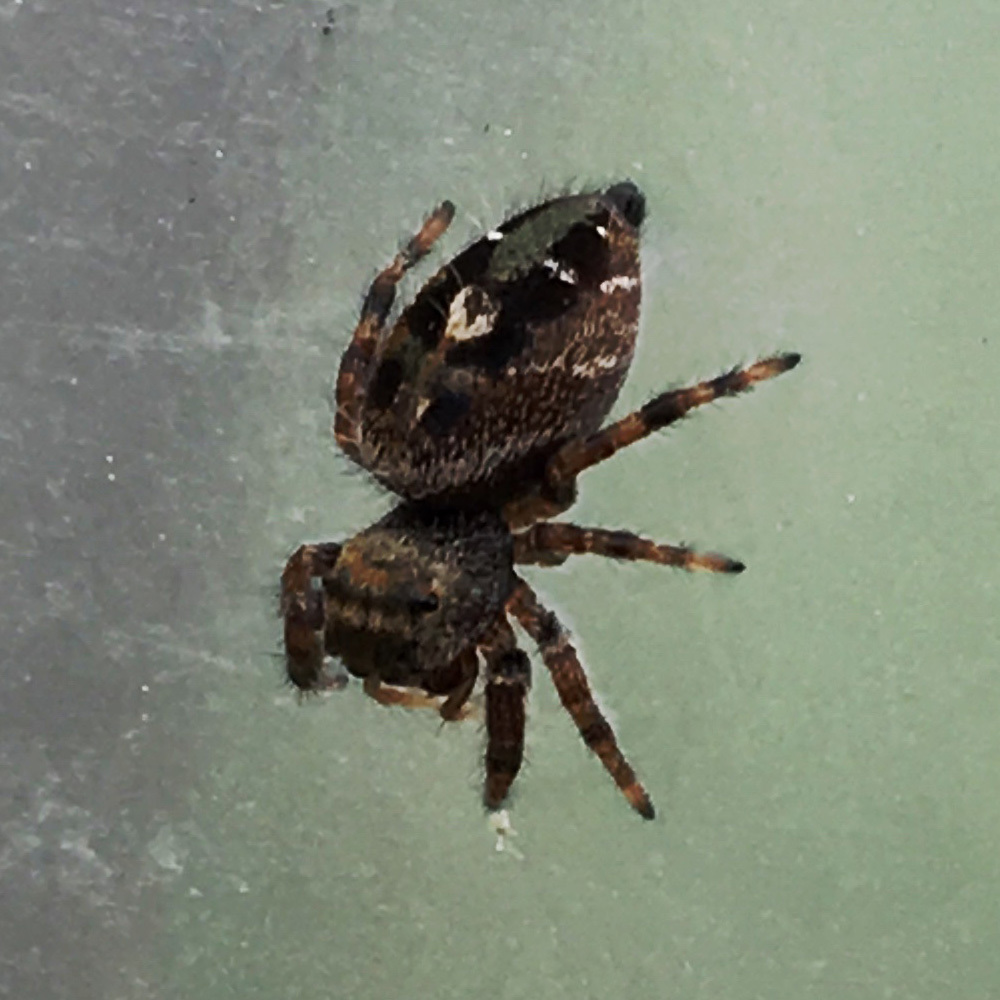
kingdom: Animalia
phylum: Arthropoda
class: Arachnida
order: Araneae
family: Salticidae
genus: Phidippus
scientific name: Phidippus audax
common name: Bold jumper
